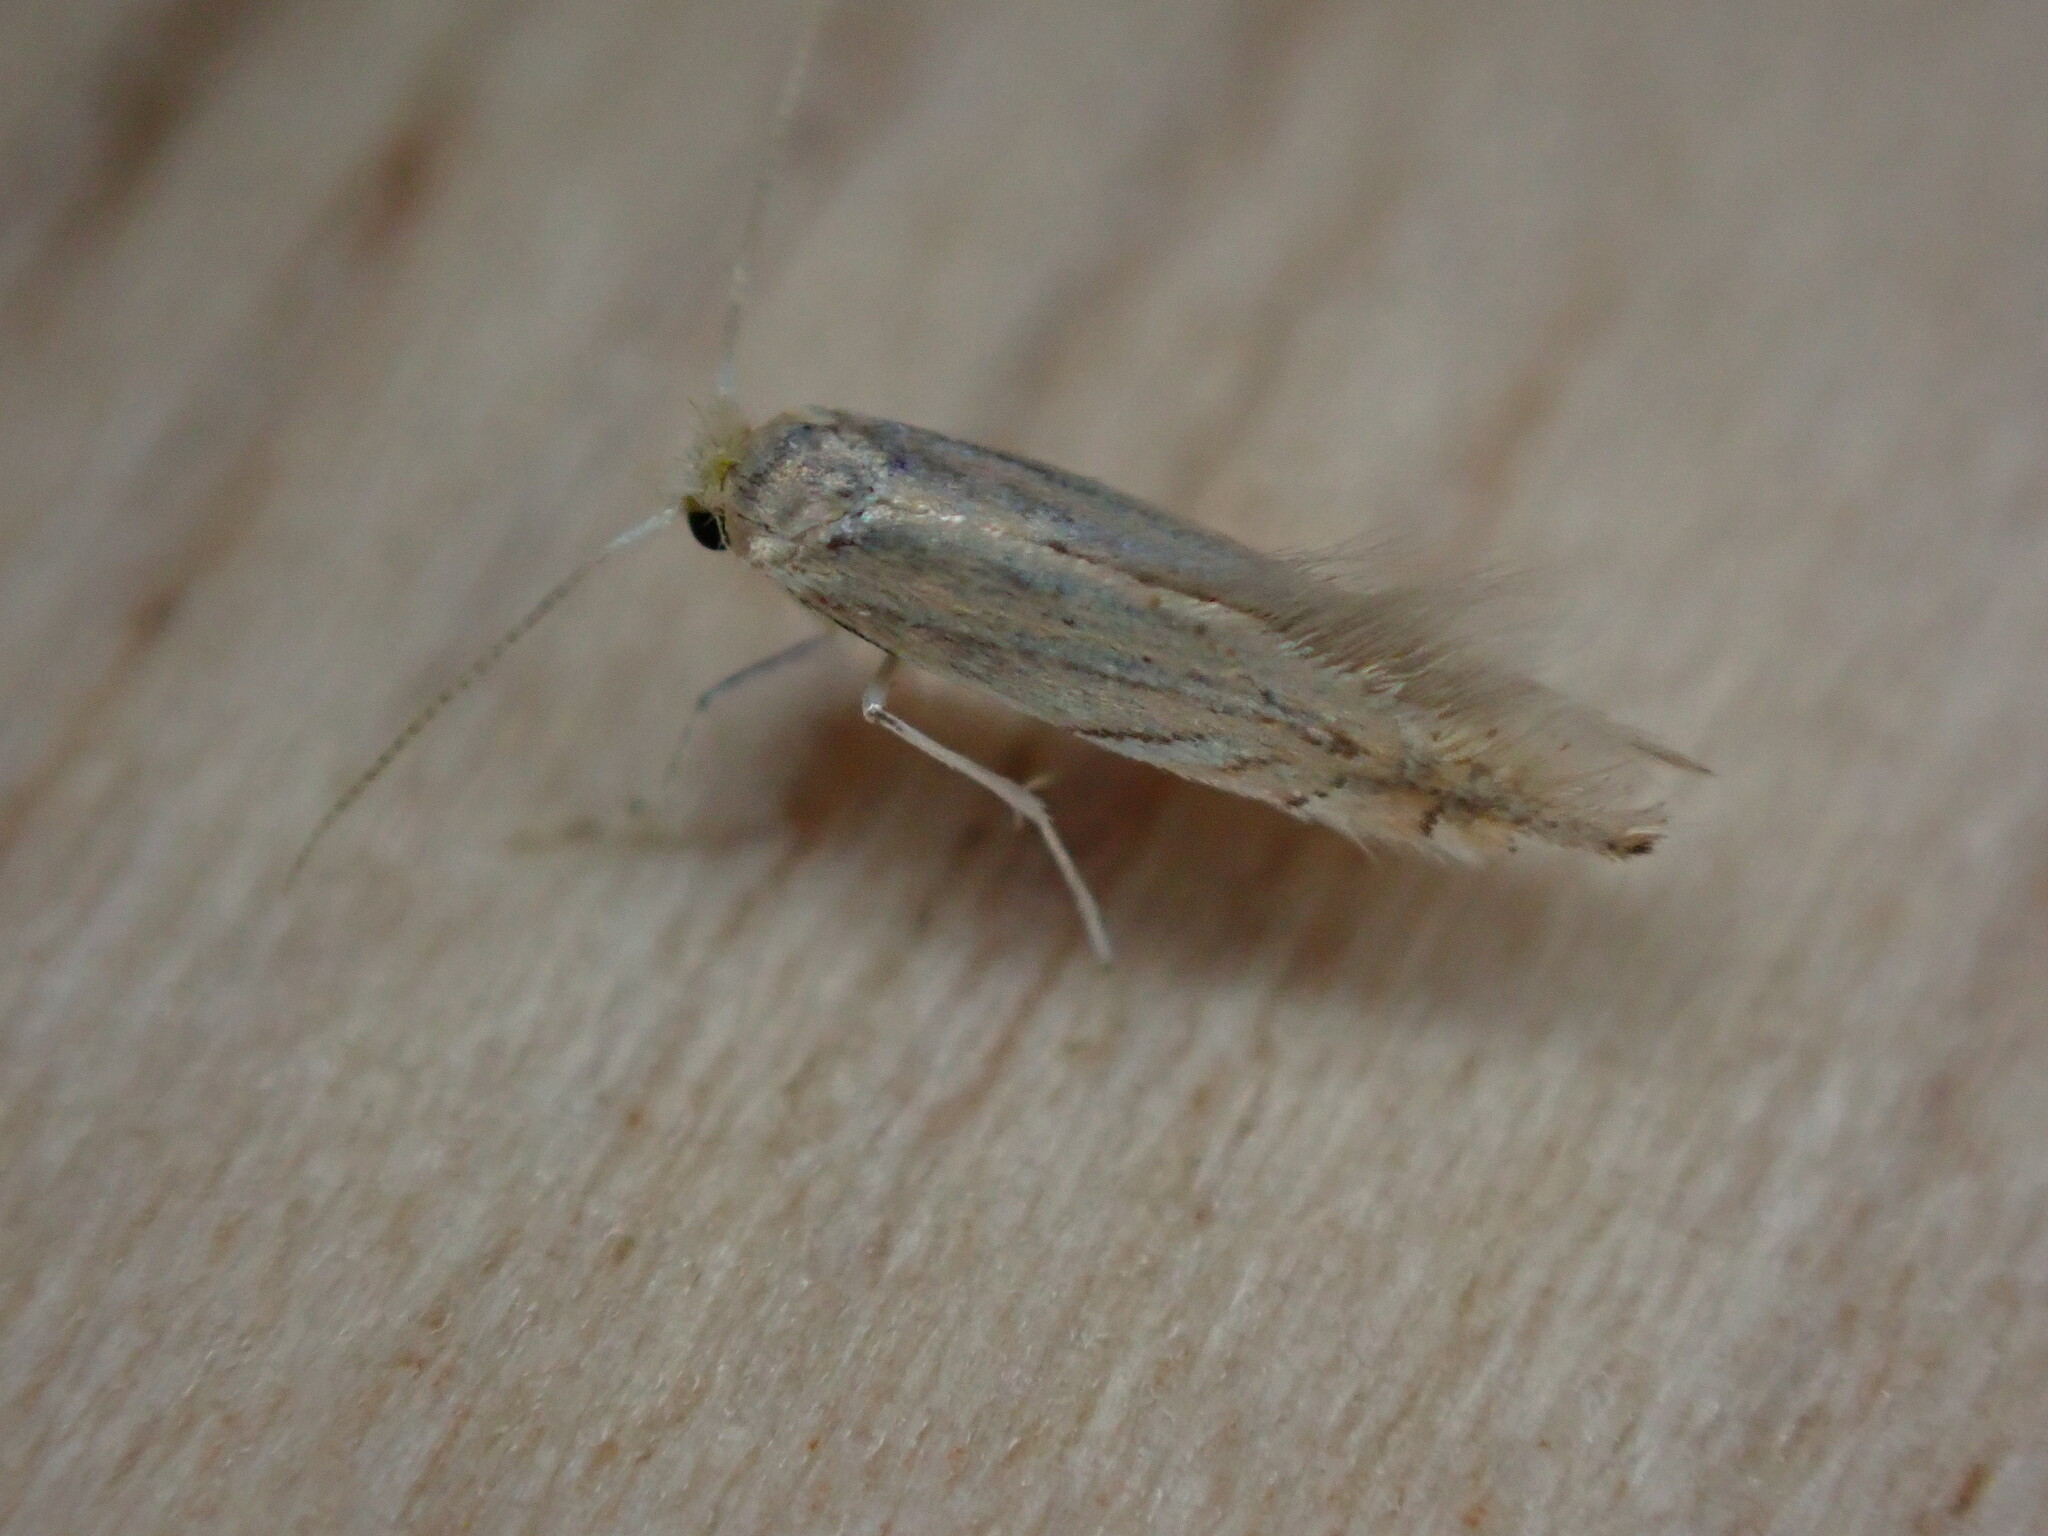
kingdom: Animalia
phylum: Arthropoda
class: Insecta
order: Lepidoptera
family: Gracillariidae
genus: Phyllonorycter
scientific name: Phyllonorycter platani
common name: London midget
